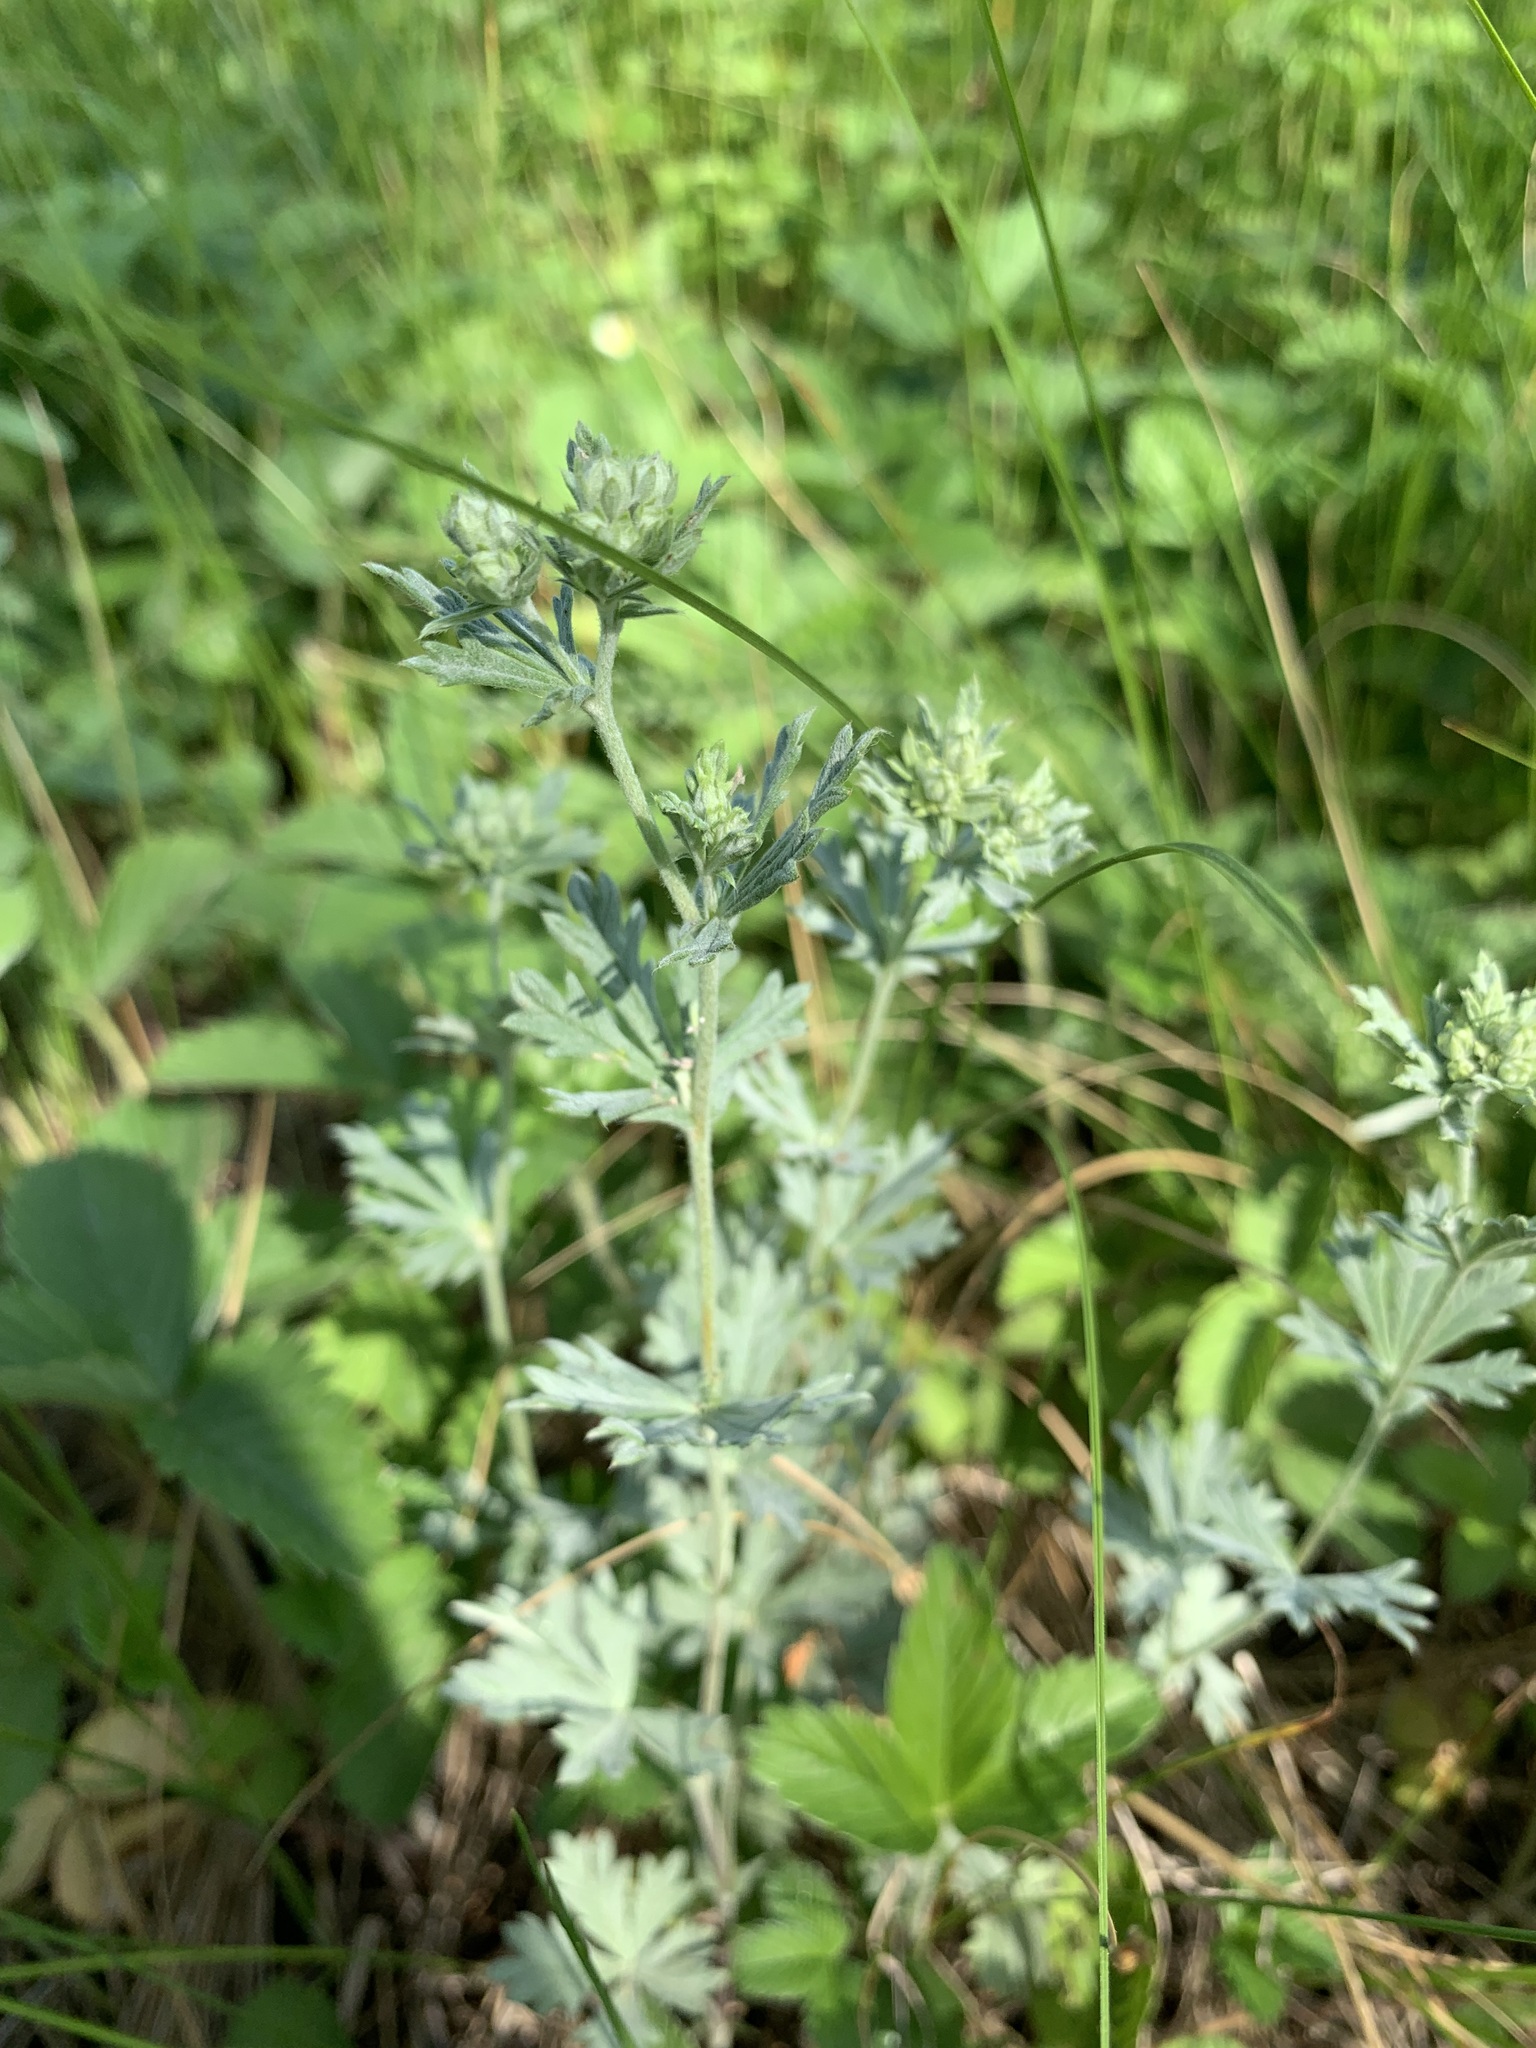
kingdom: Plantae
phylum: Tracheophyta
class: Magnoliopsida
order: Rosales
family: Rosaceae
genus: Potentilla
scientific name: Potentilla argentea
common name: Hoary cinquefoil
